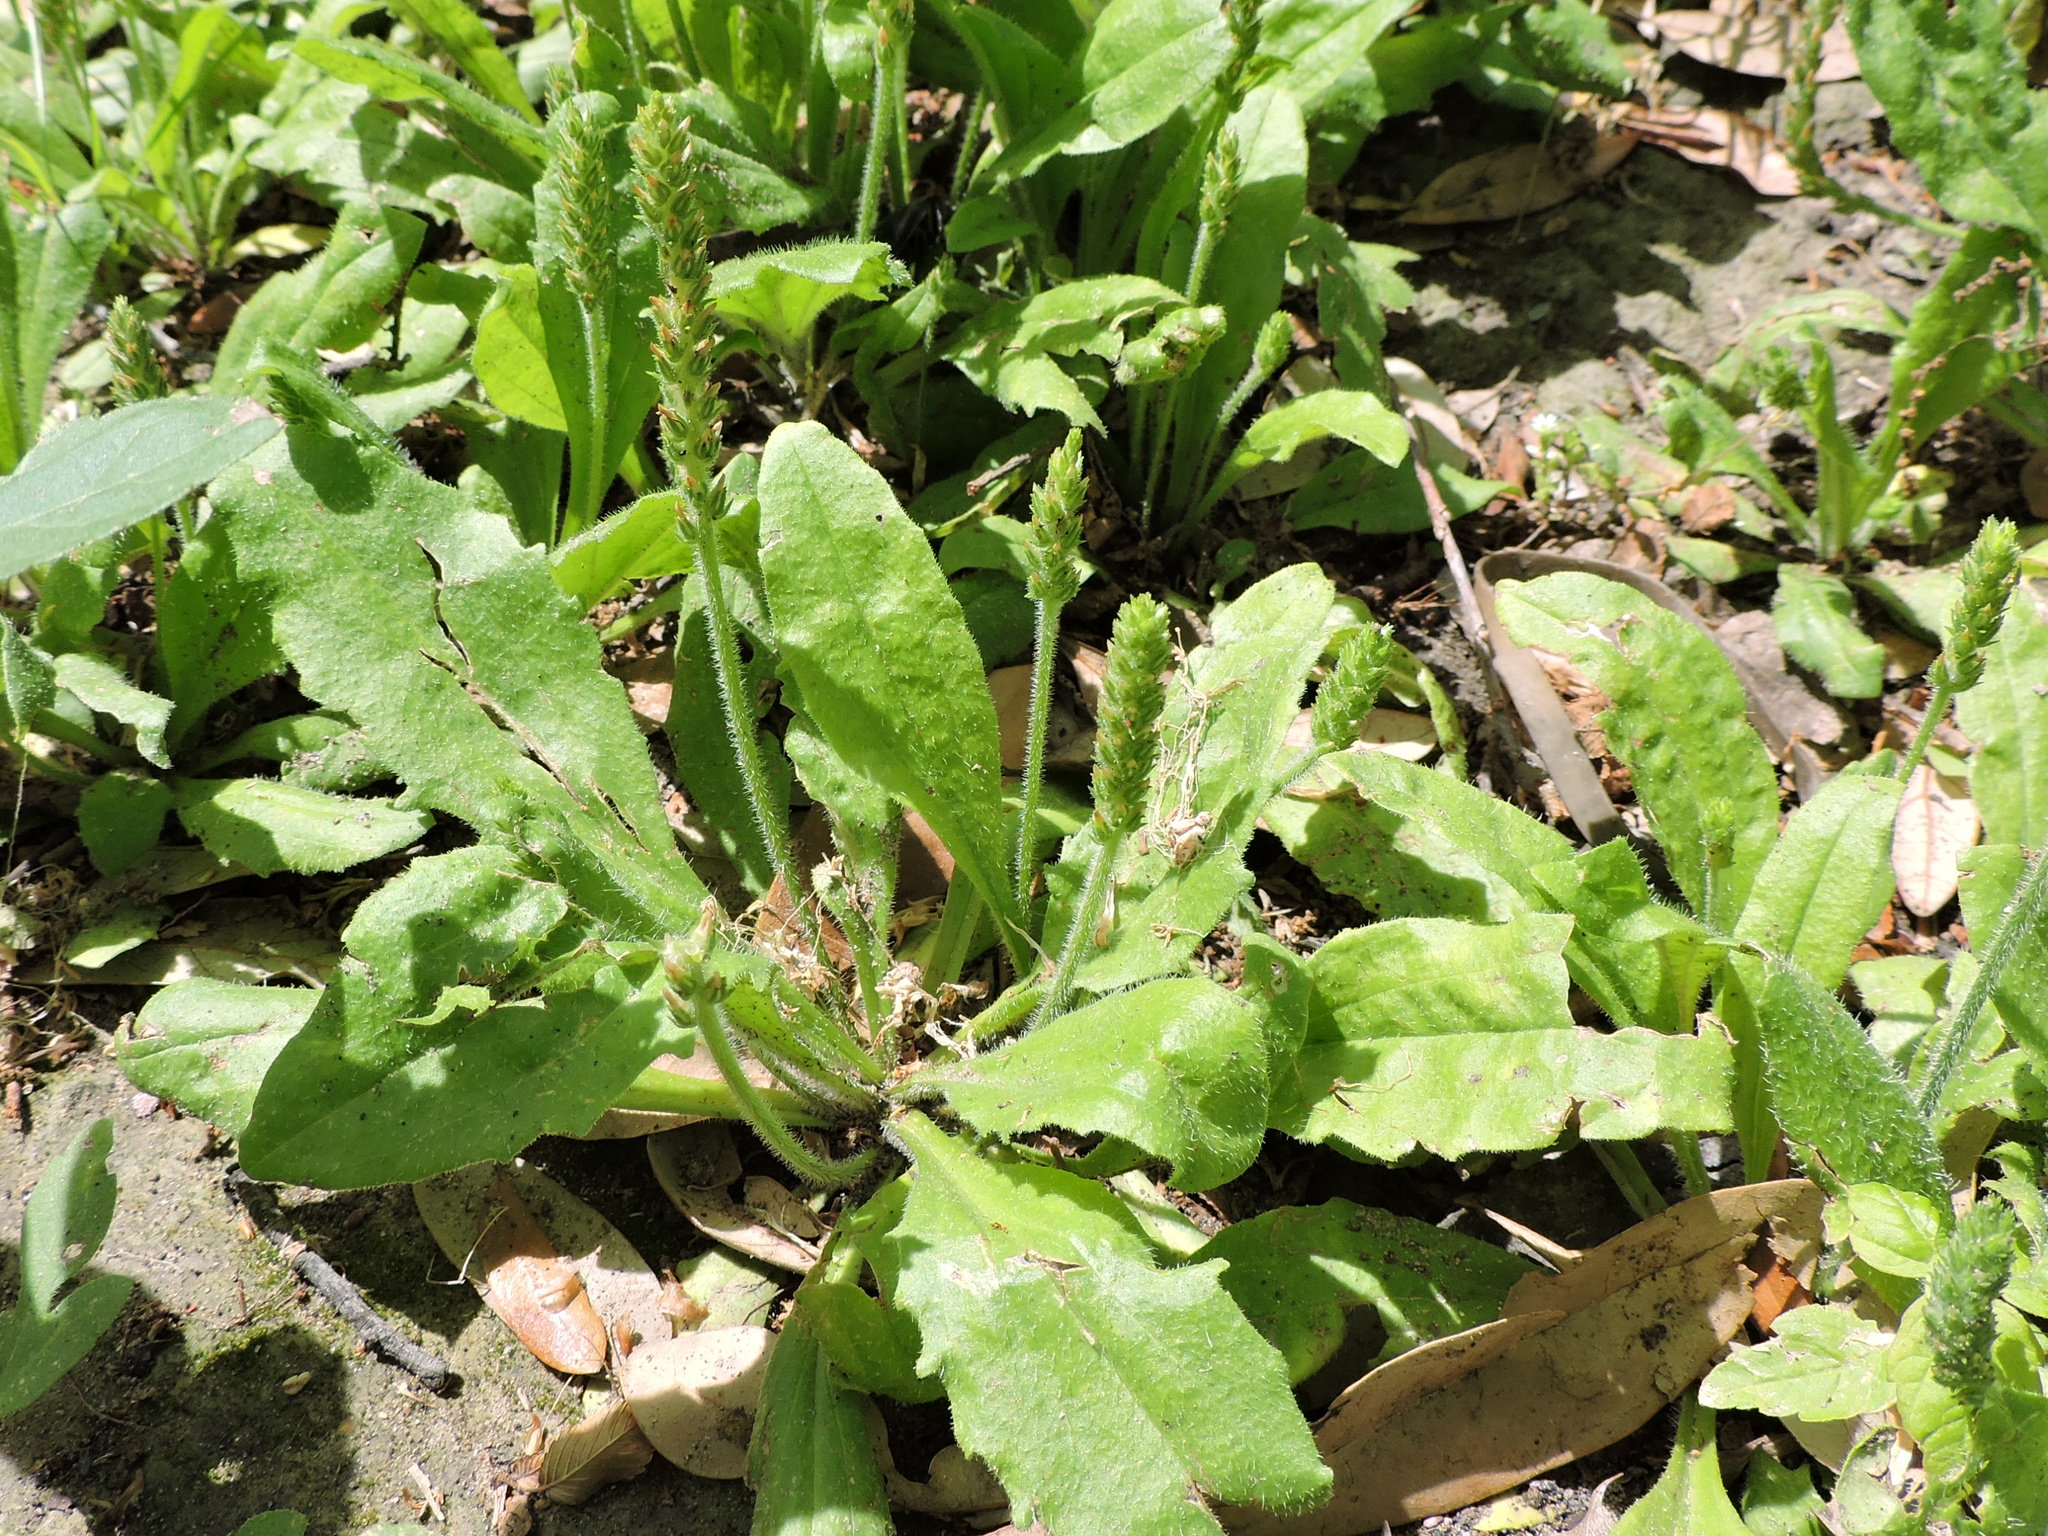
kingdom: Plantae
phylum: Tracheophyta
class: Magnoliopsida
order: Lamiales
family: Plantaginaceae
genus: Plantago
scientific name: Plantago virginica
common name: Hoary plantain
